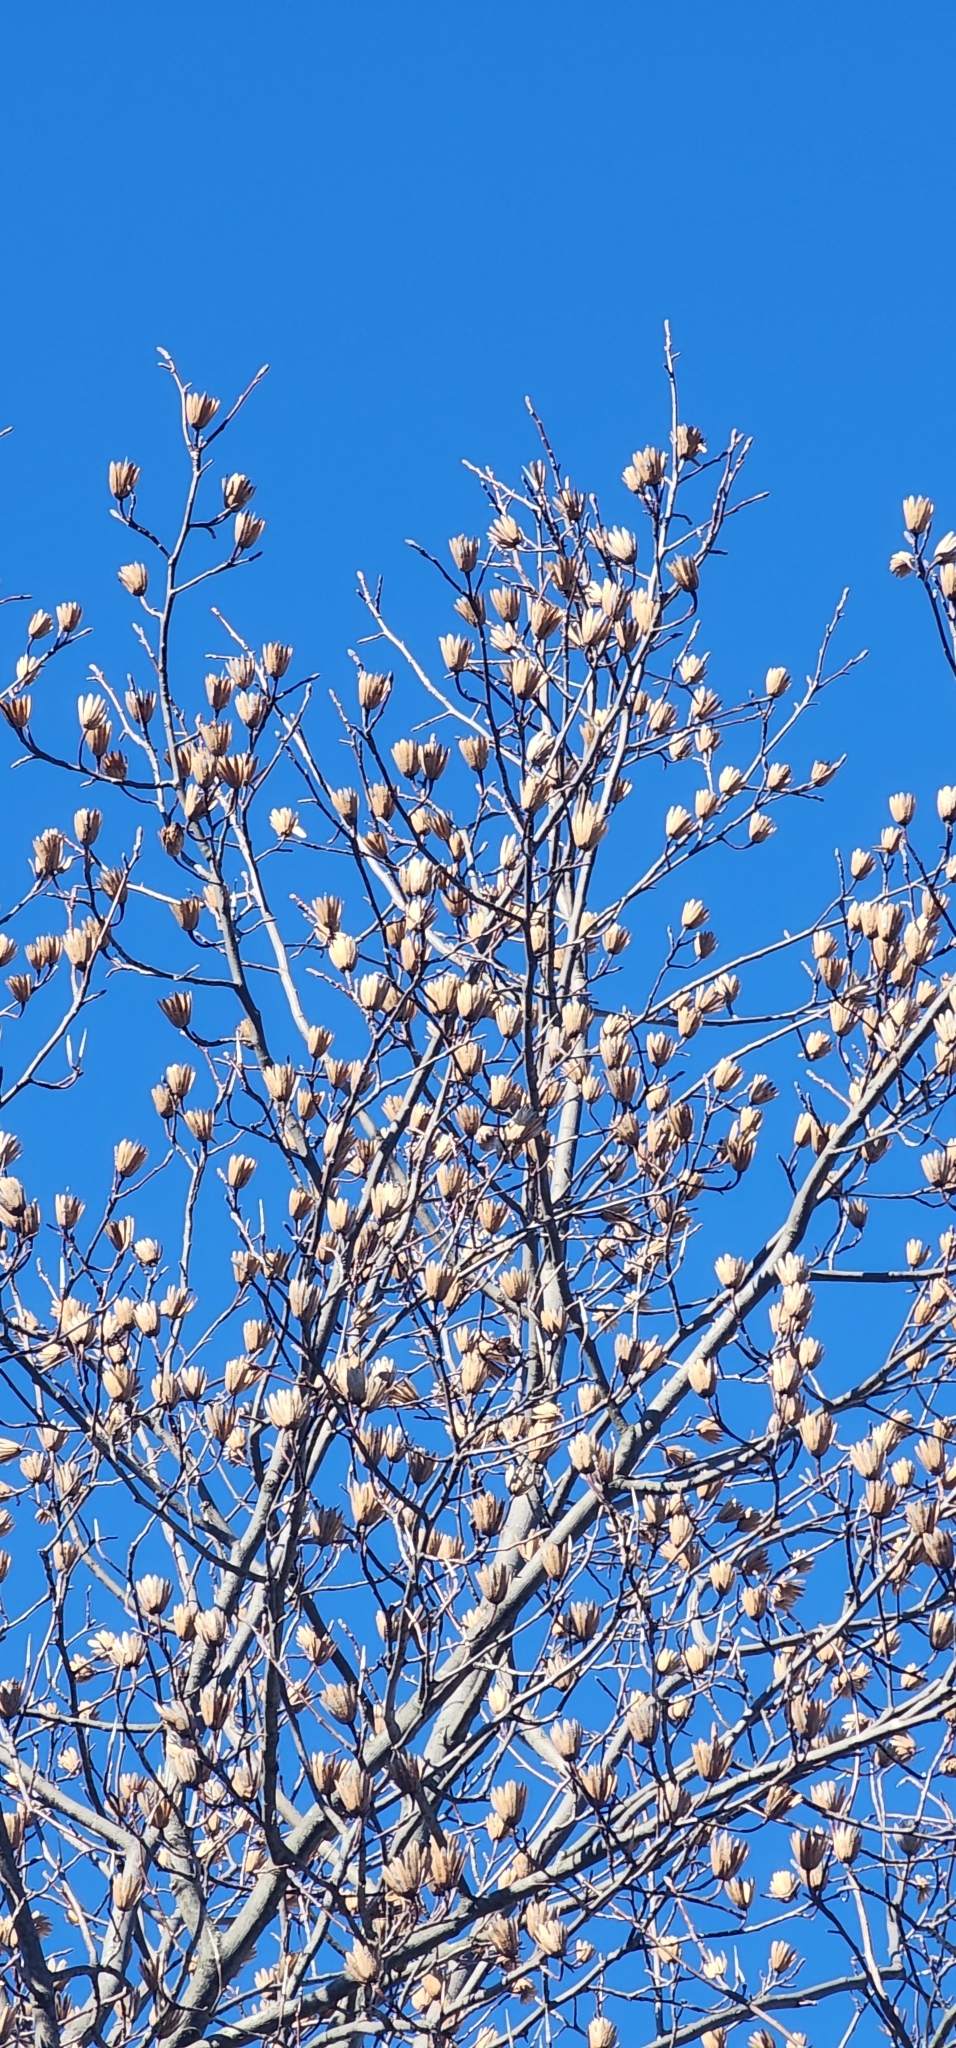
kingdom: Plantae
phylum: Tracheophyta
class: Magnoliopsida
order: Magnoliales
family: Magnoliaceae
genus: Liriodendron
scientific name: Liriodendron tulipifera
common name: Tulip tree
